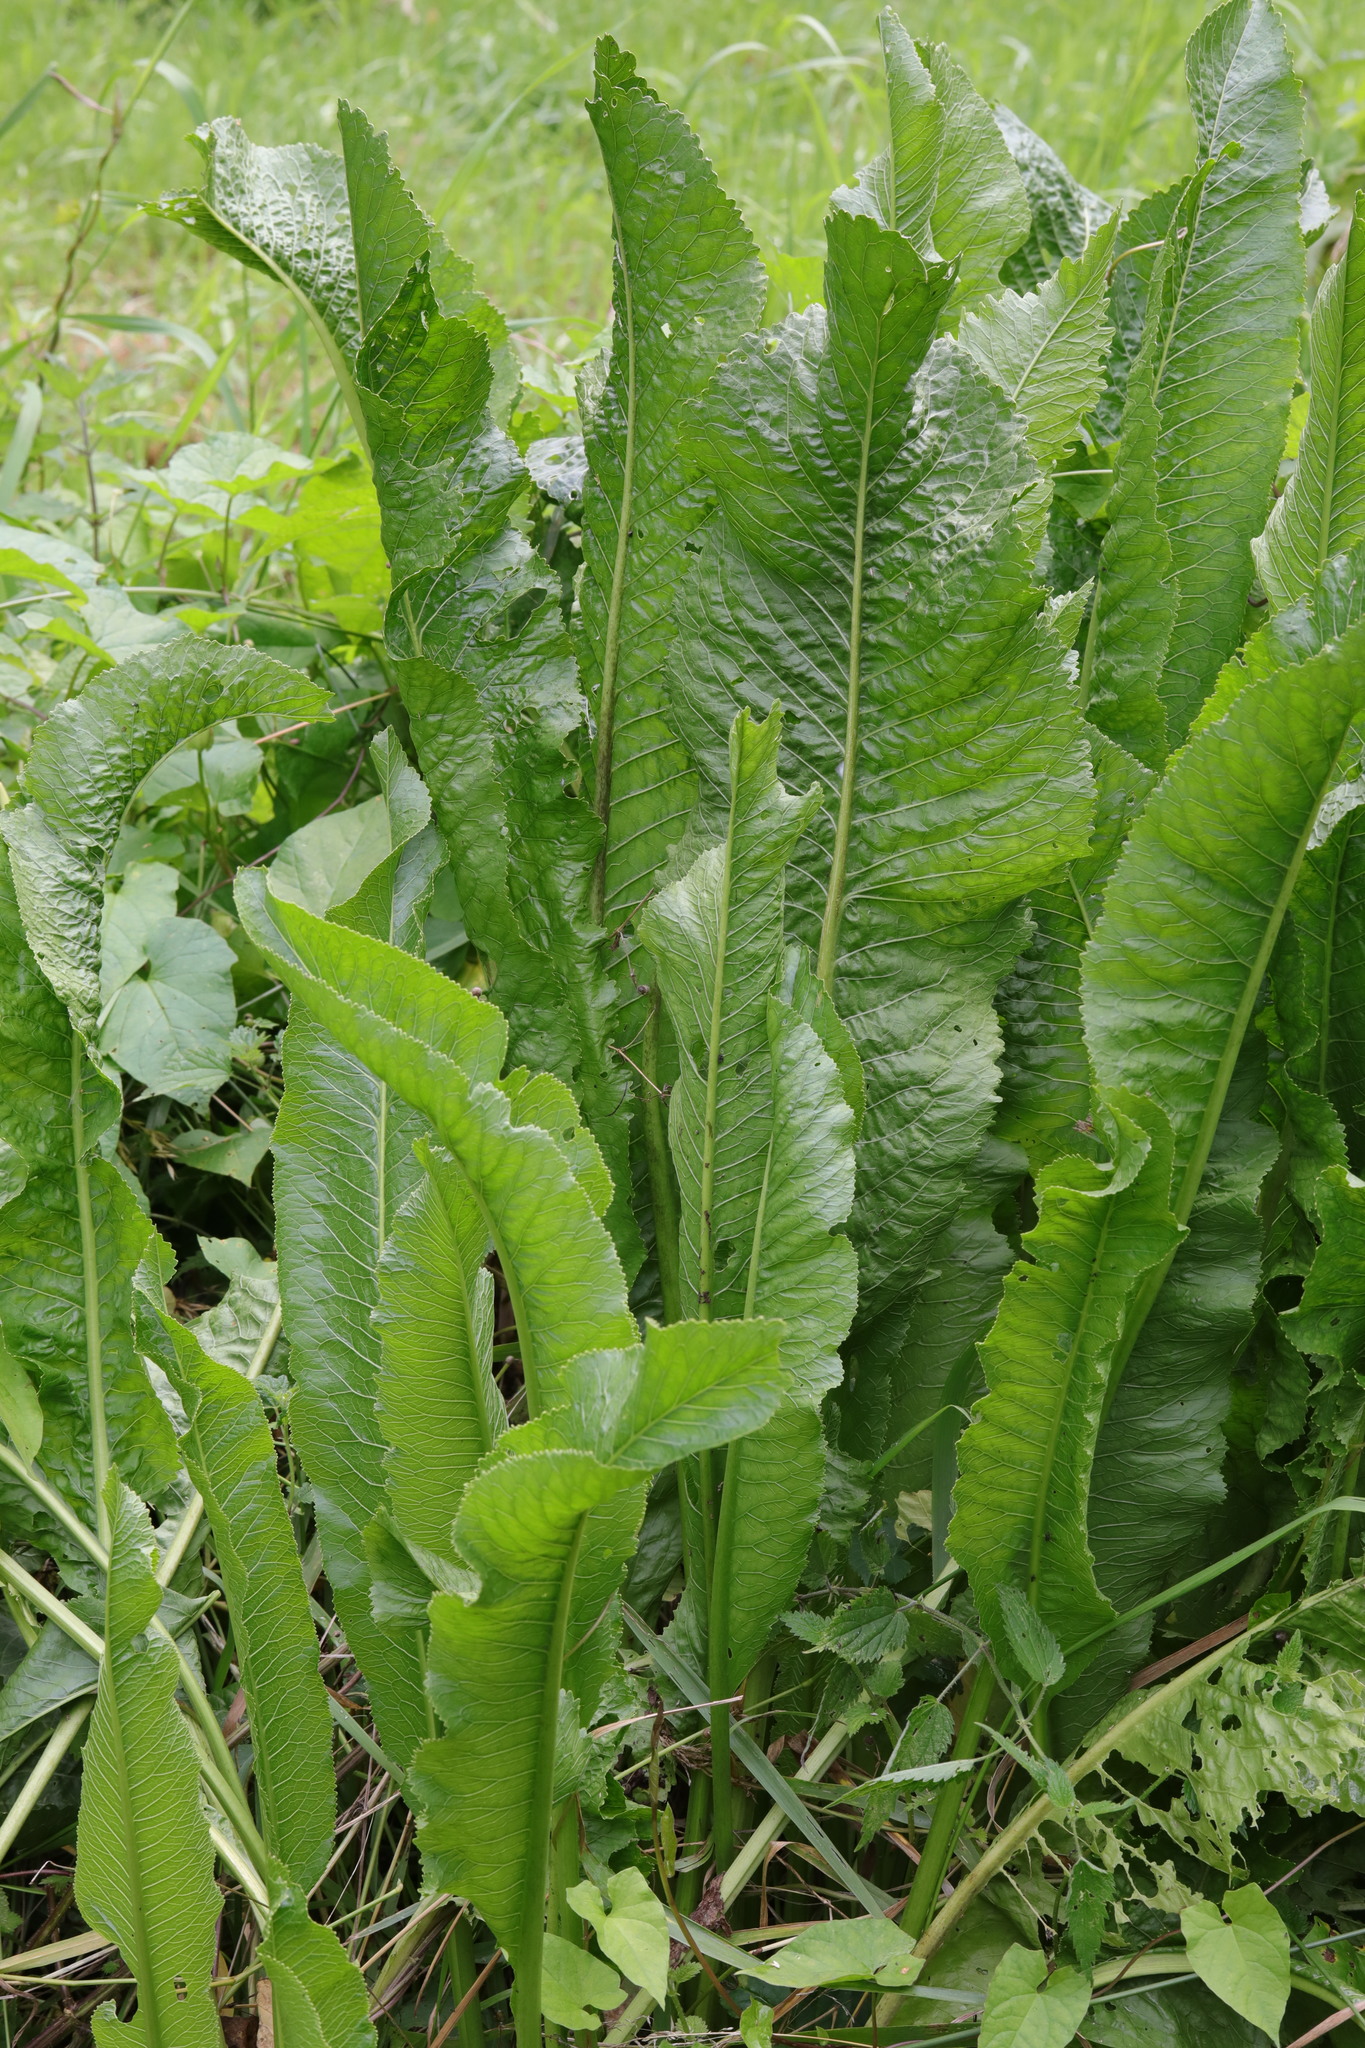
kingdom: Plantae
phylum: Tracheophyta
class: Magnoliopsida
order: Brassicales
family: Brassicaceae
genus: Armoracia
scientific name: Armoracia rusticana
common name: Horseradish
